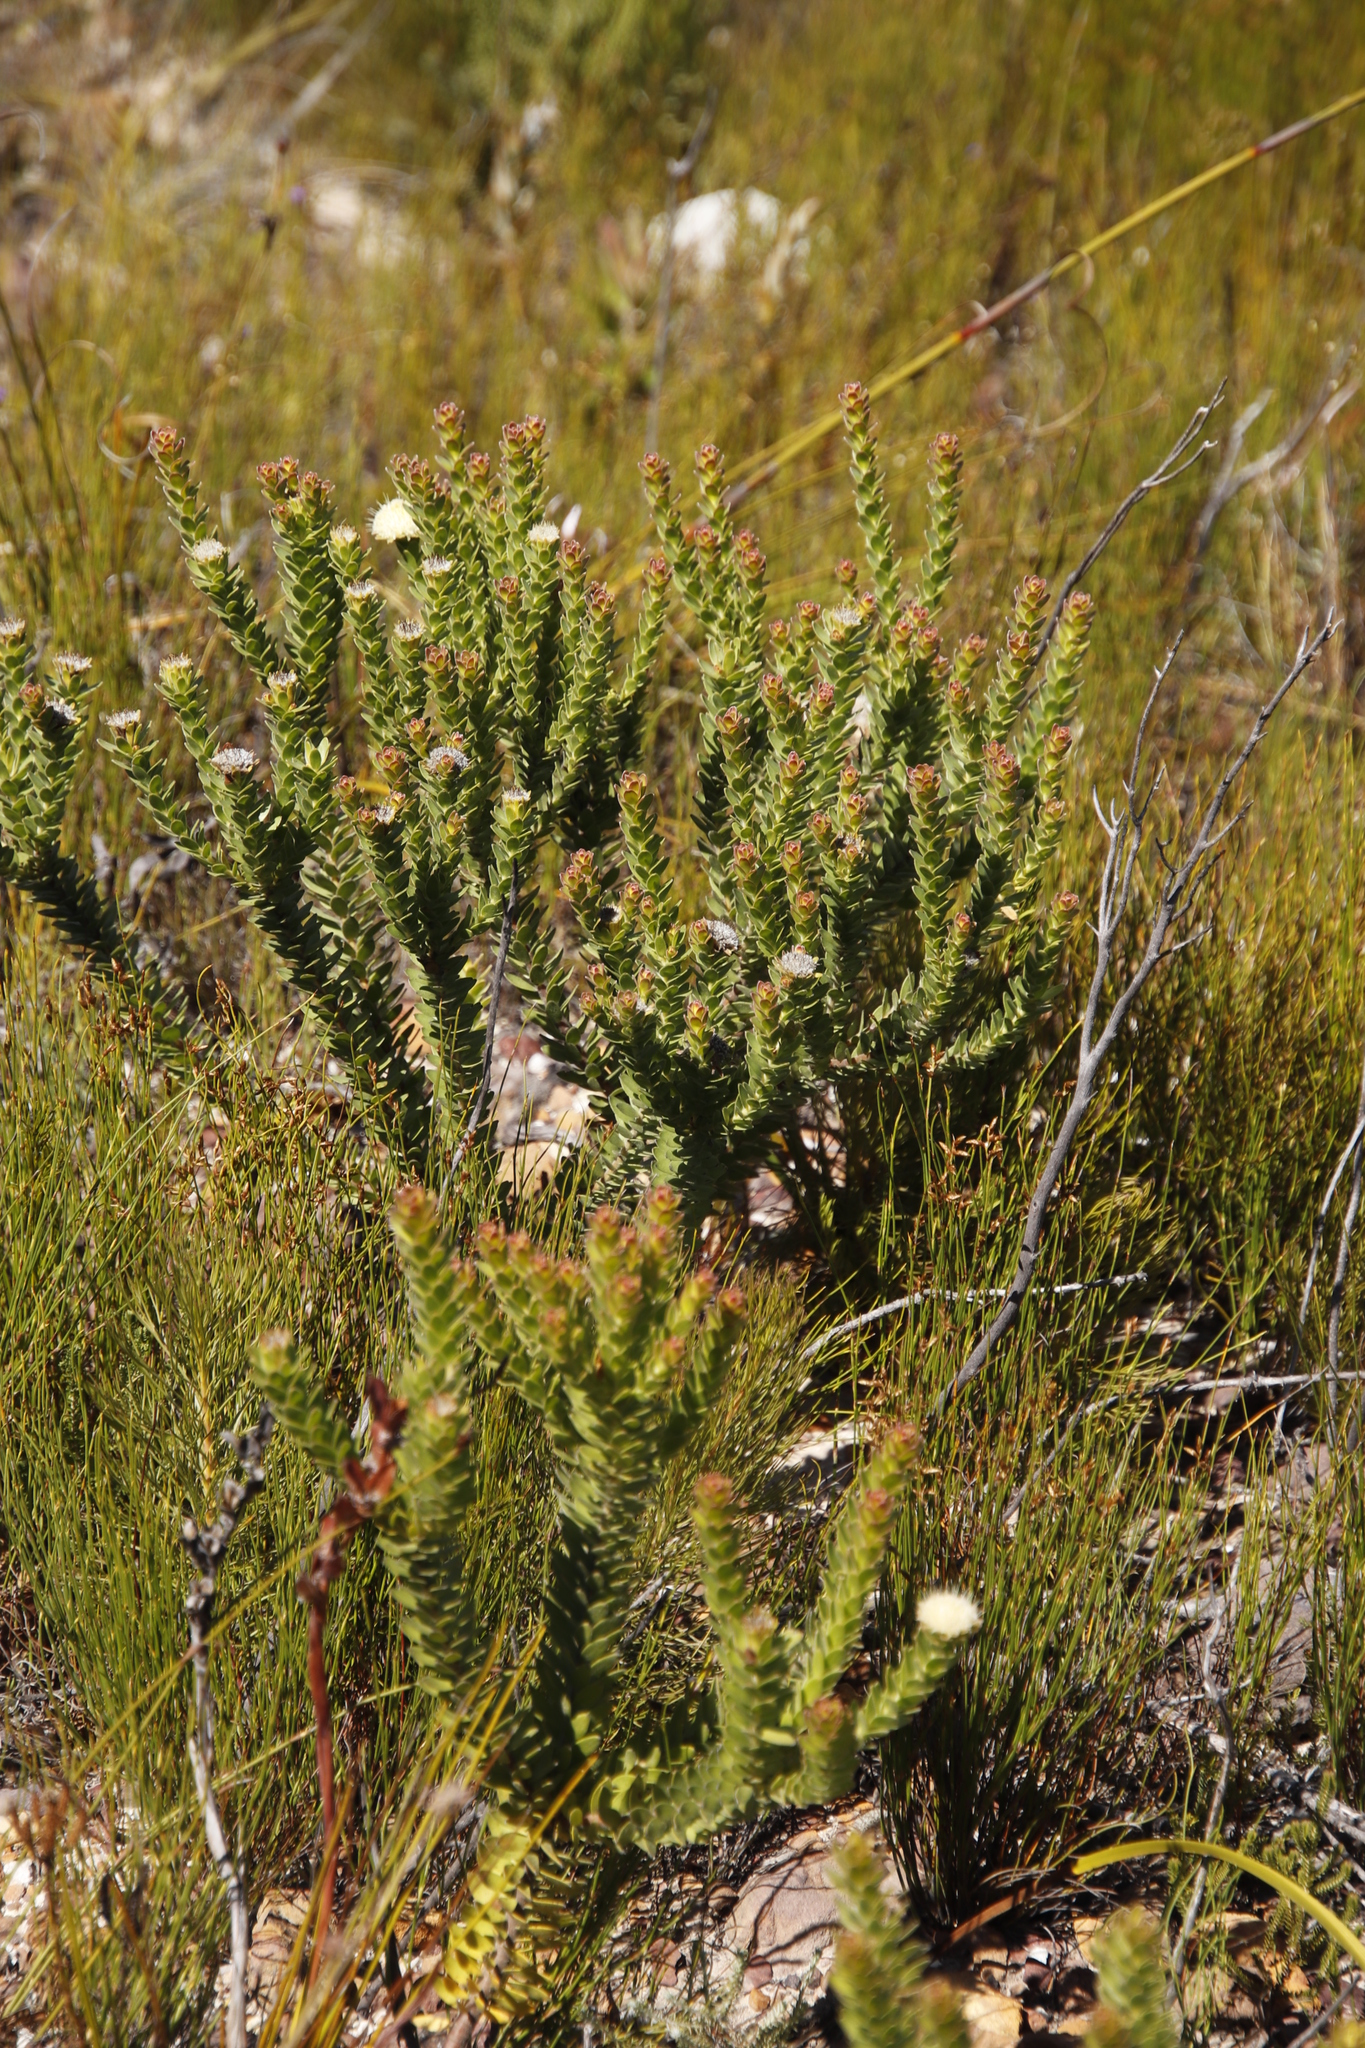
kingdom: Plantae
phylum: Tracheophyta
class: Magnoliopsida
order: Proteales
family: Proteaceae
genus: Diastella
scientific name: Diastella thymelaeoides
